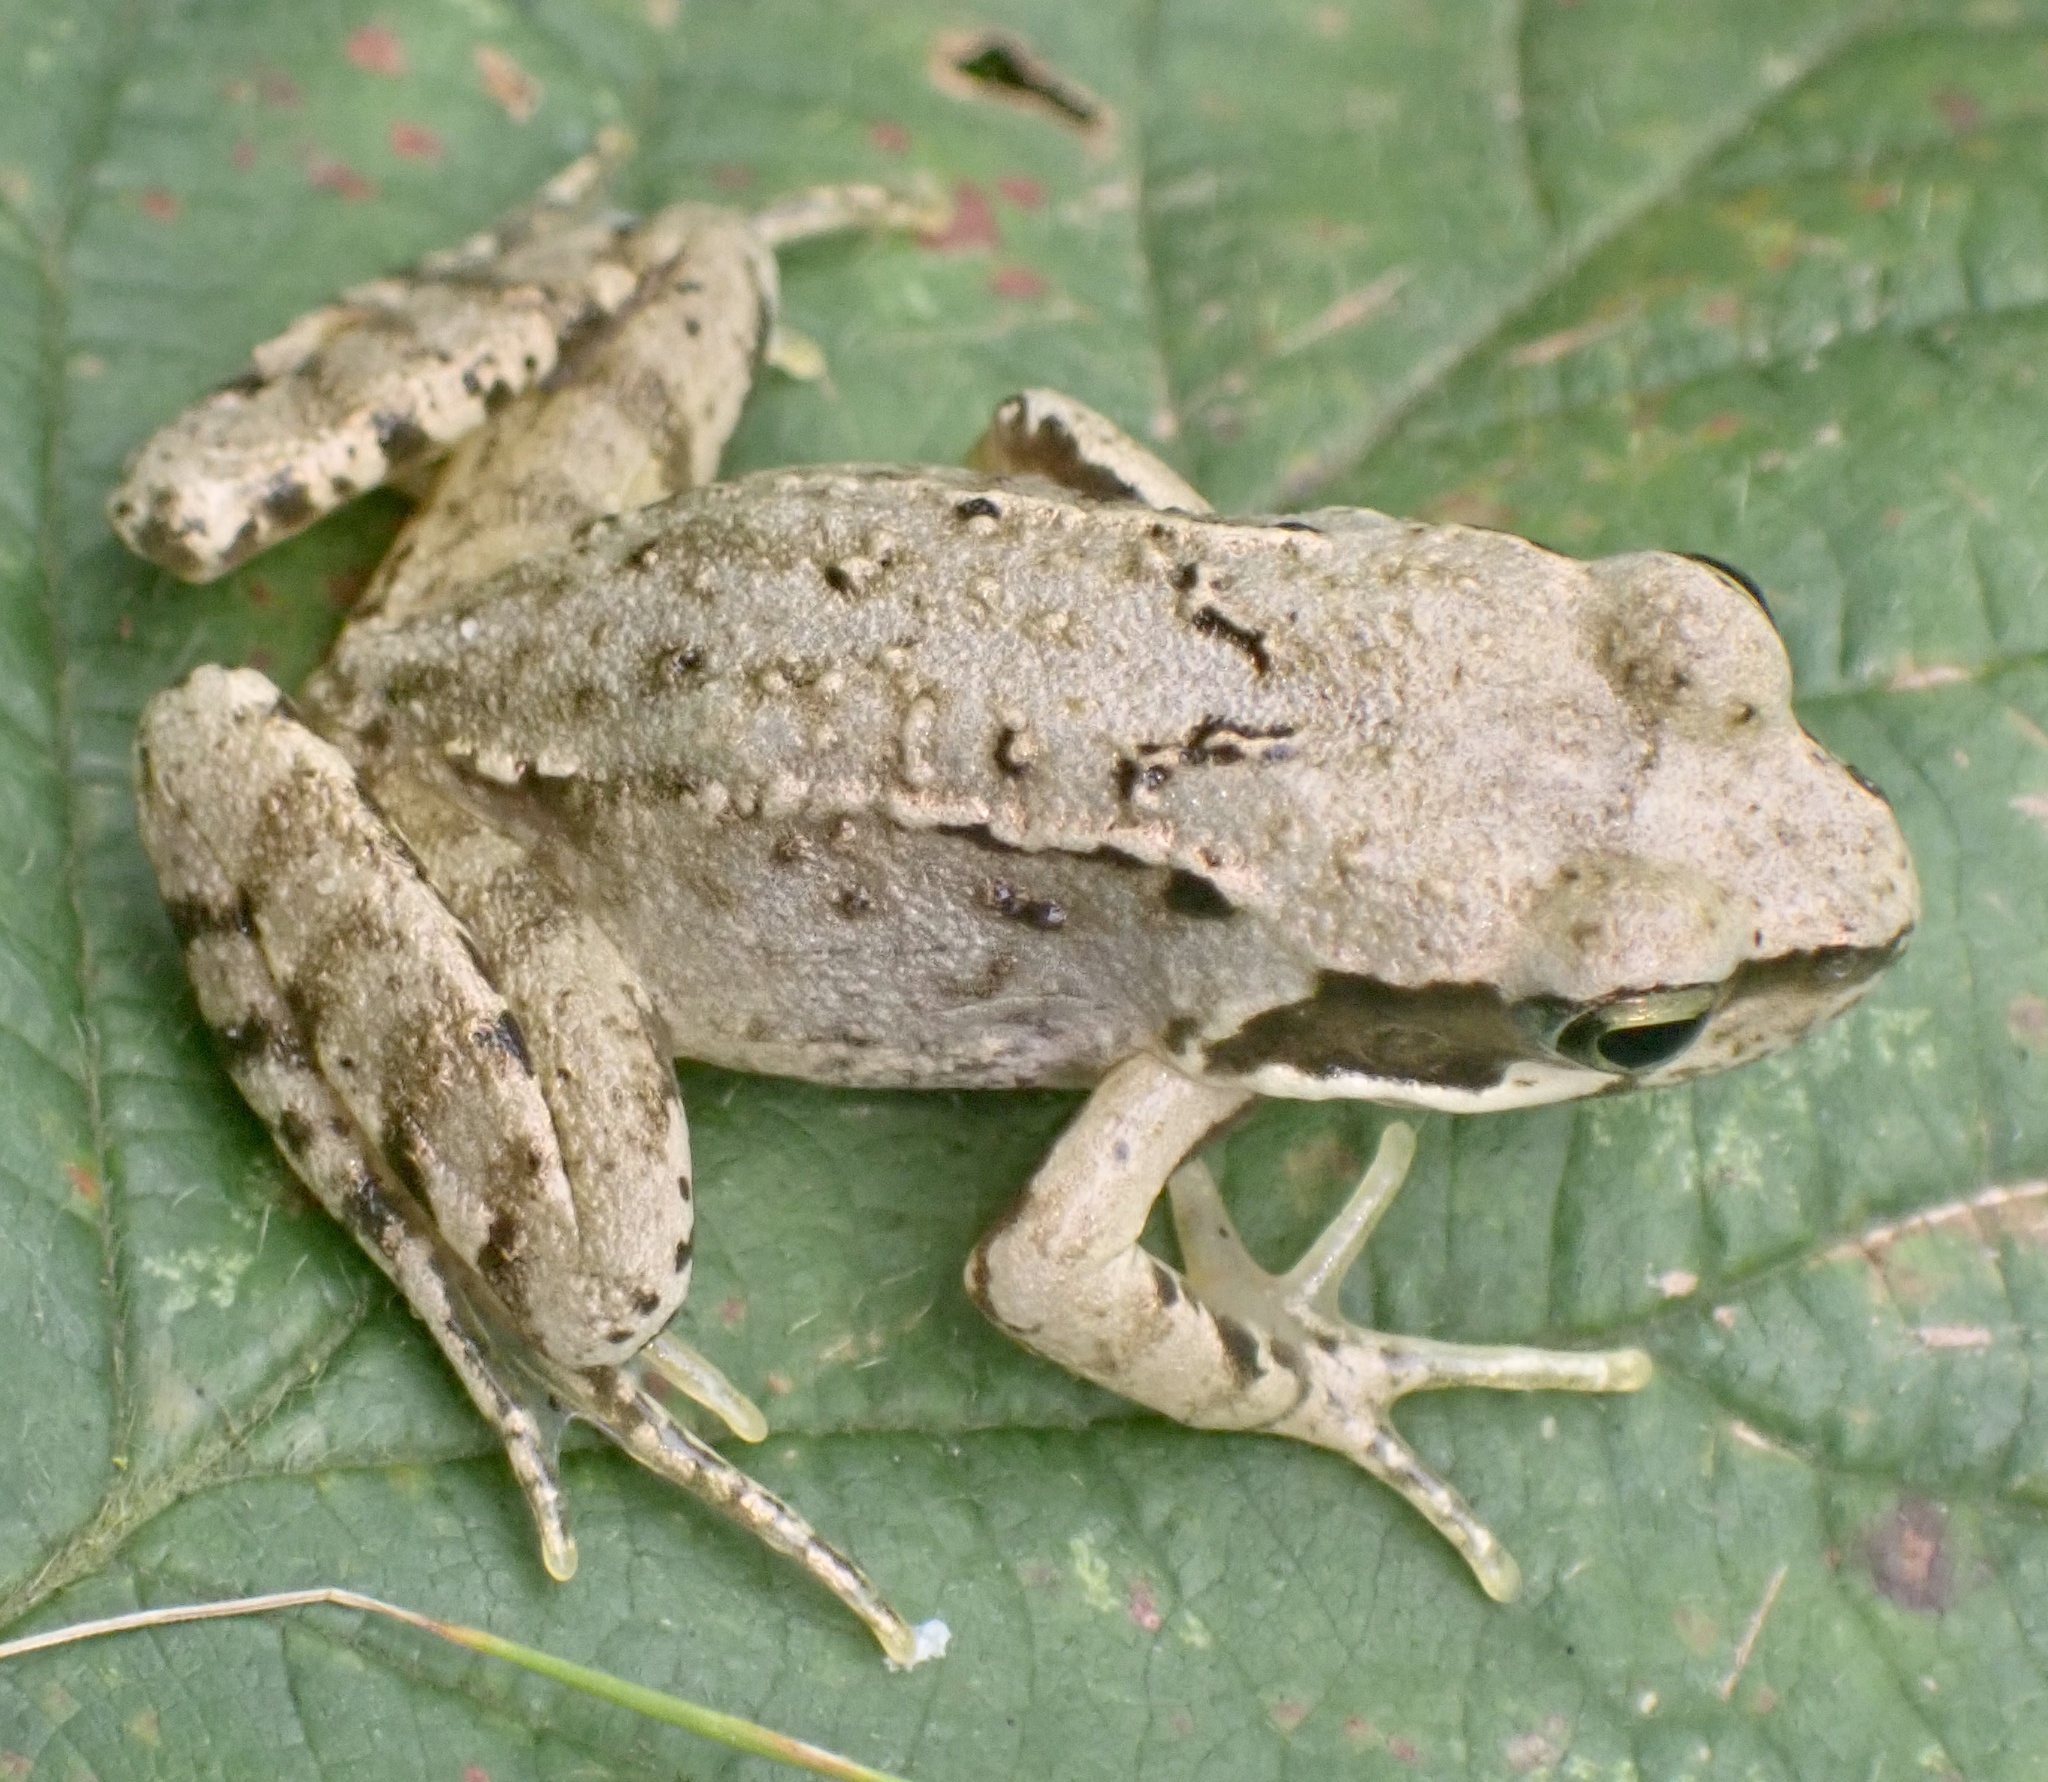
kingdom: Animalia
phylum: Chordata
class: Amphibia
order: Anura
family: Ranidae
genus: Rana
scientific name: Rana temporaria
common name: Common frog
